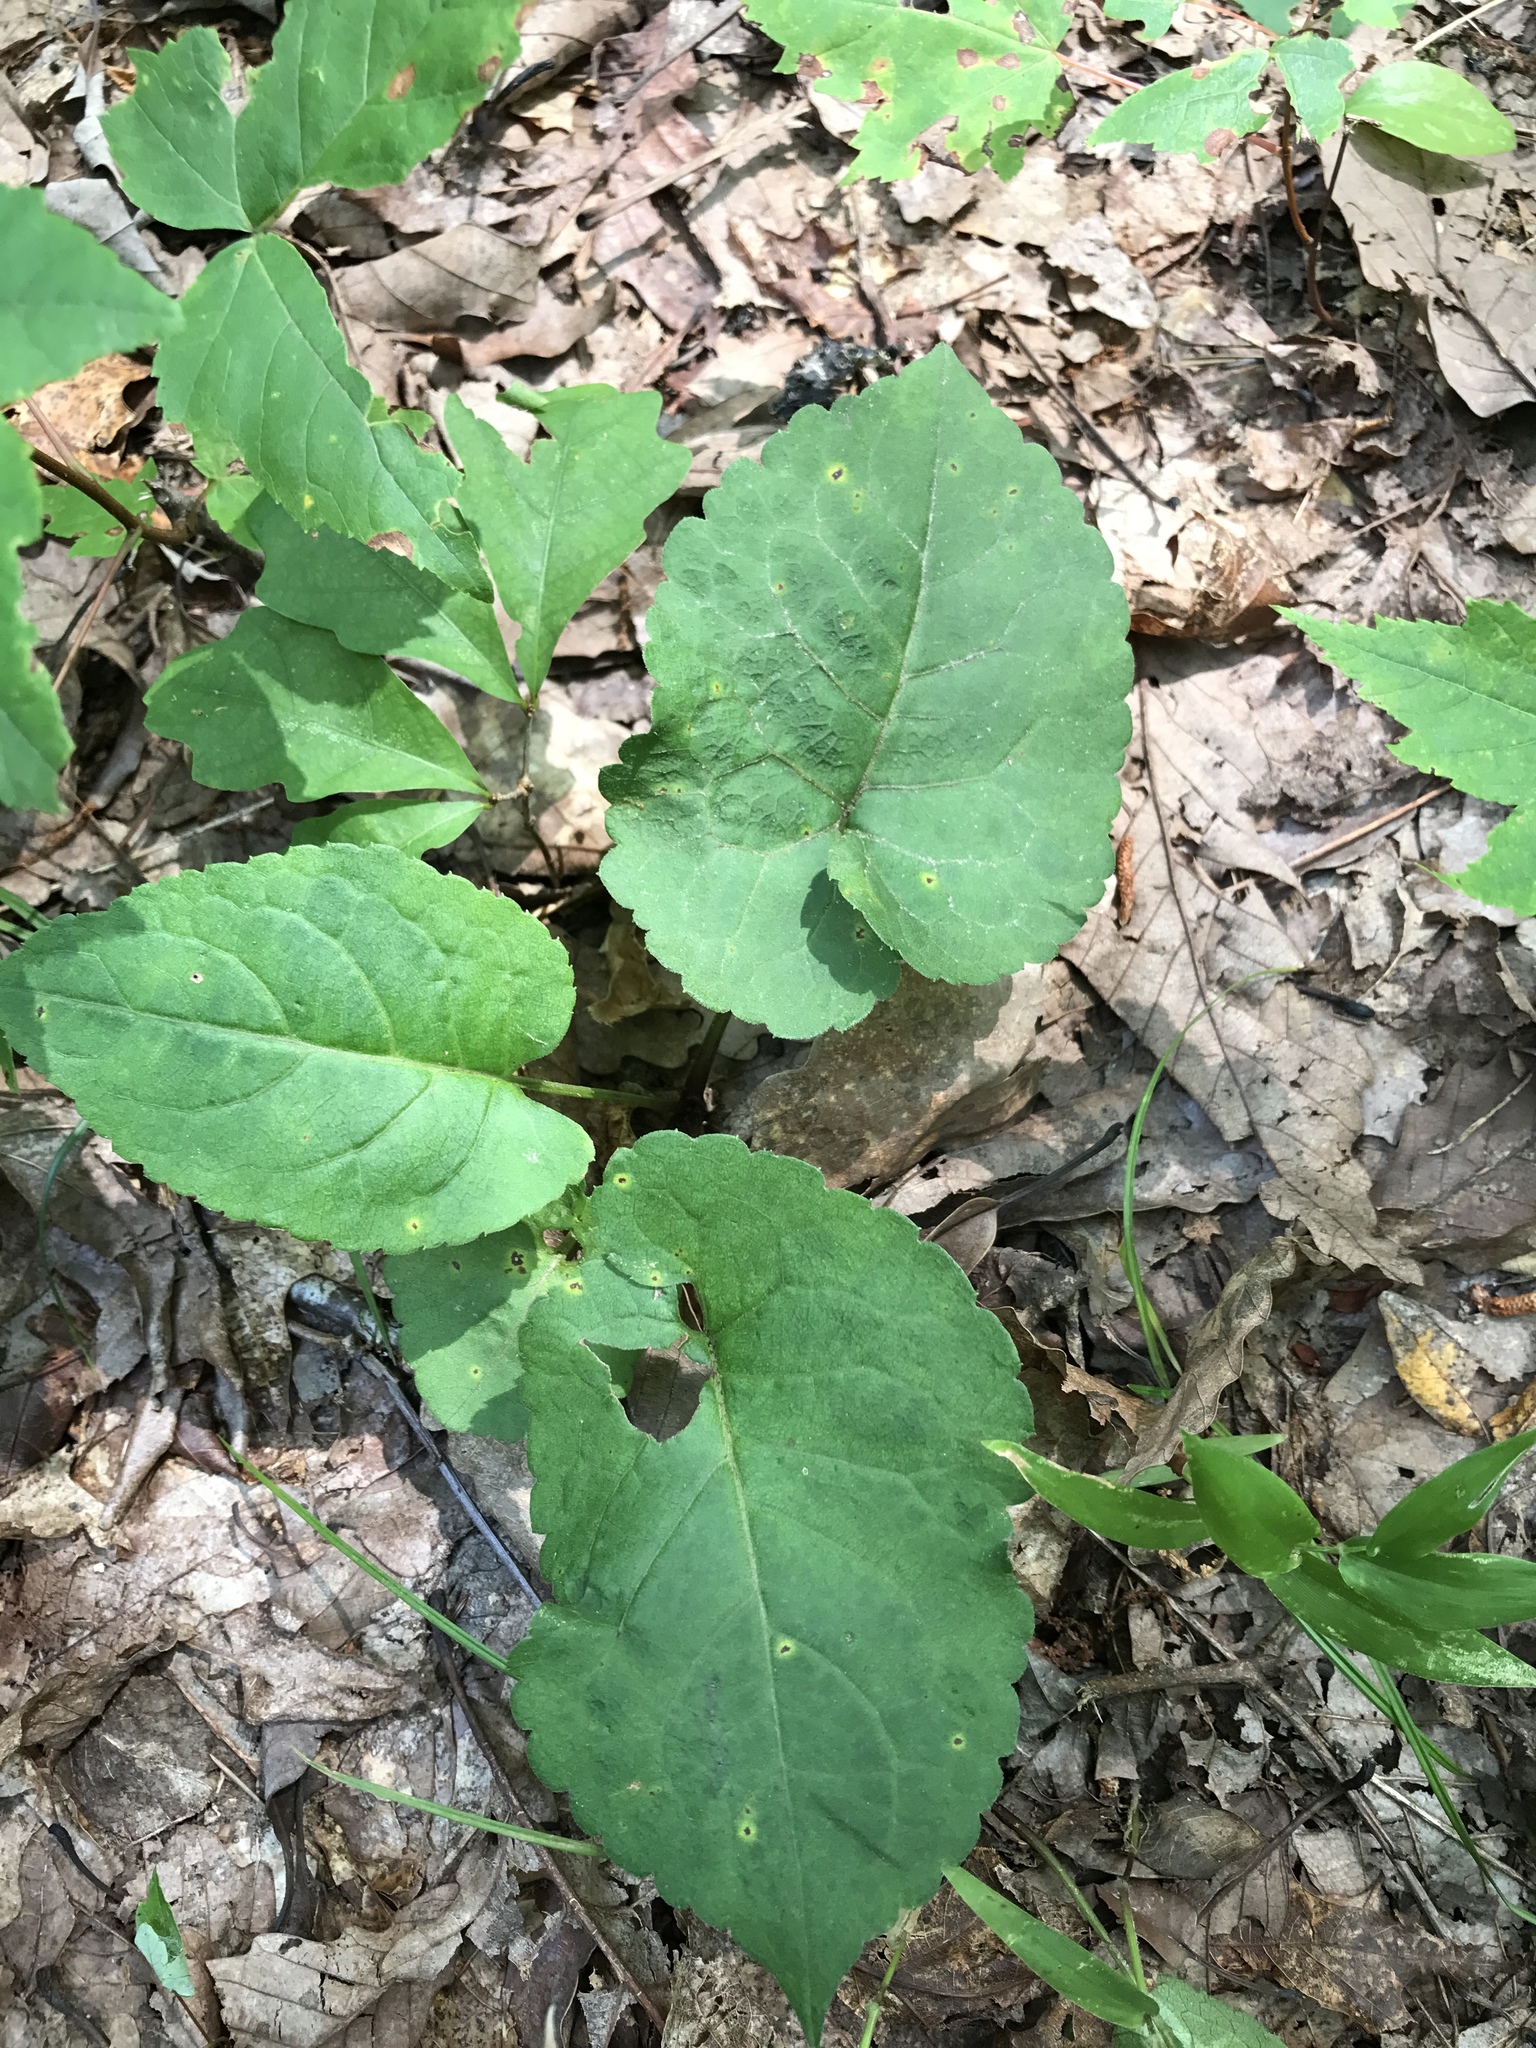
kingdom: Plantae
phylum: Tracheophyta
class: Magnoliopsida
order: Asterales
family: Asteraceae
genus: Eurybia
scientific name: Eurybia macrophylla
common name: Big-leaved aster
